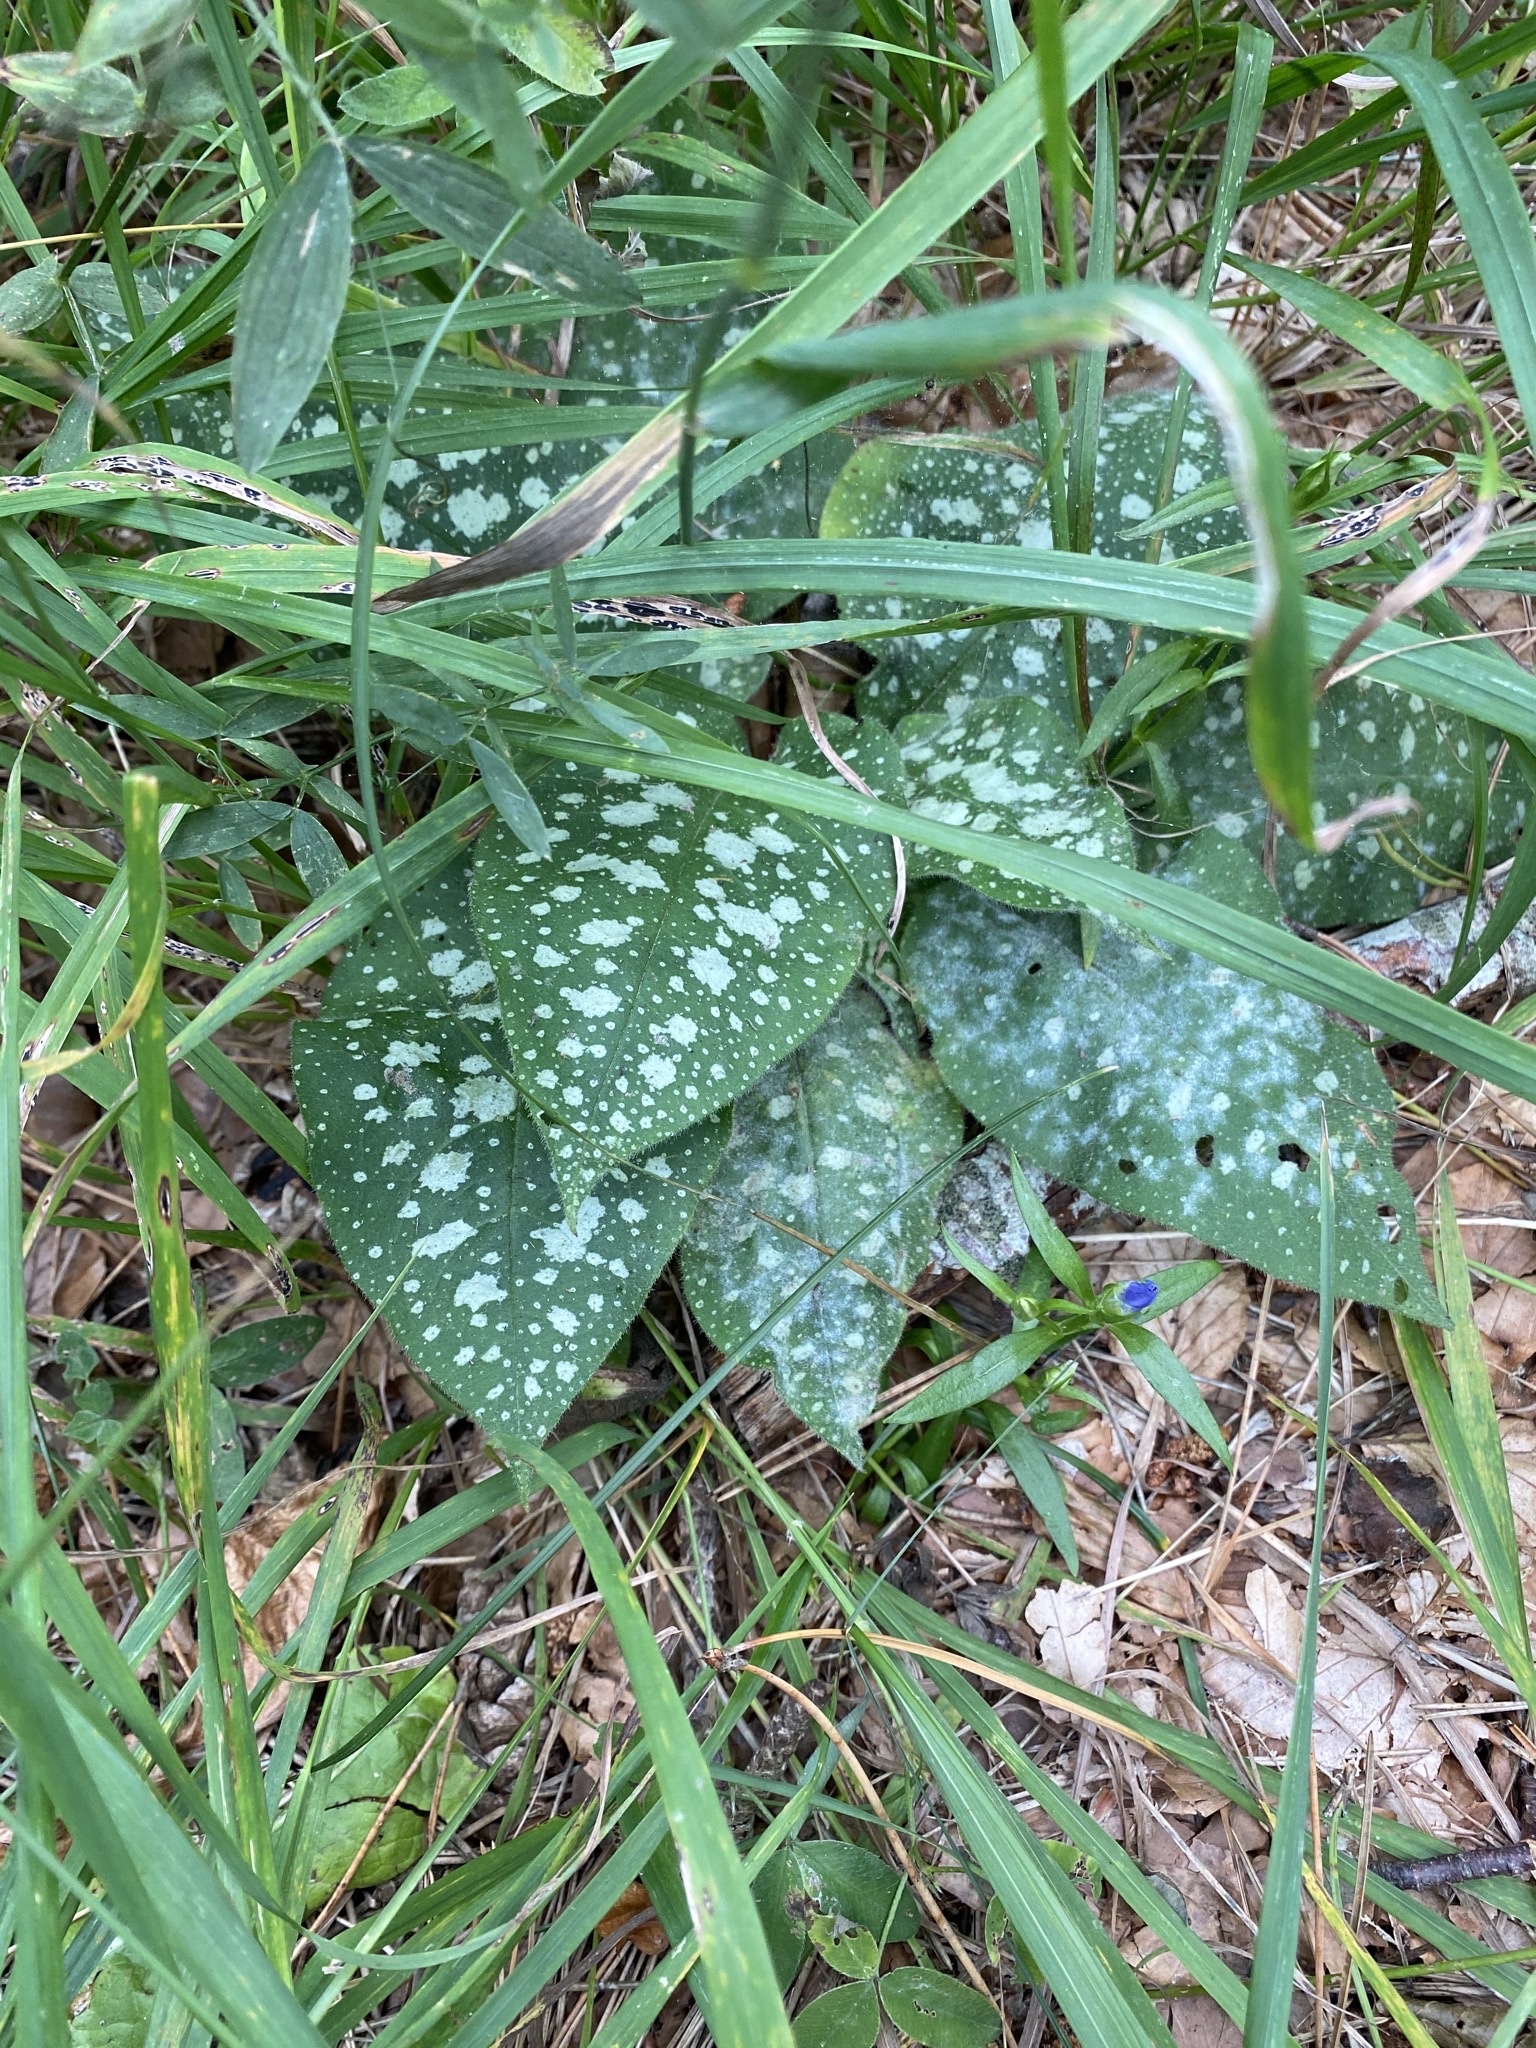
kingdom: Plantae
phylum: Tracheophyta
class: Magnoliopsida
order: Boraginales
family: Boraginaceae
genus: Pulmonaria
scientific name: Pulmonaria officinalis
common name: Lungwort
